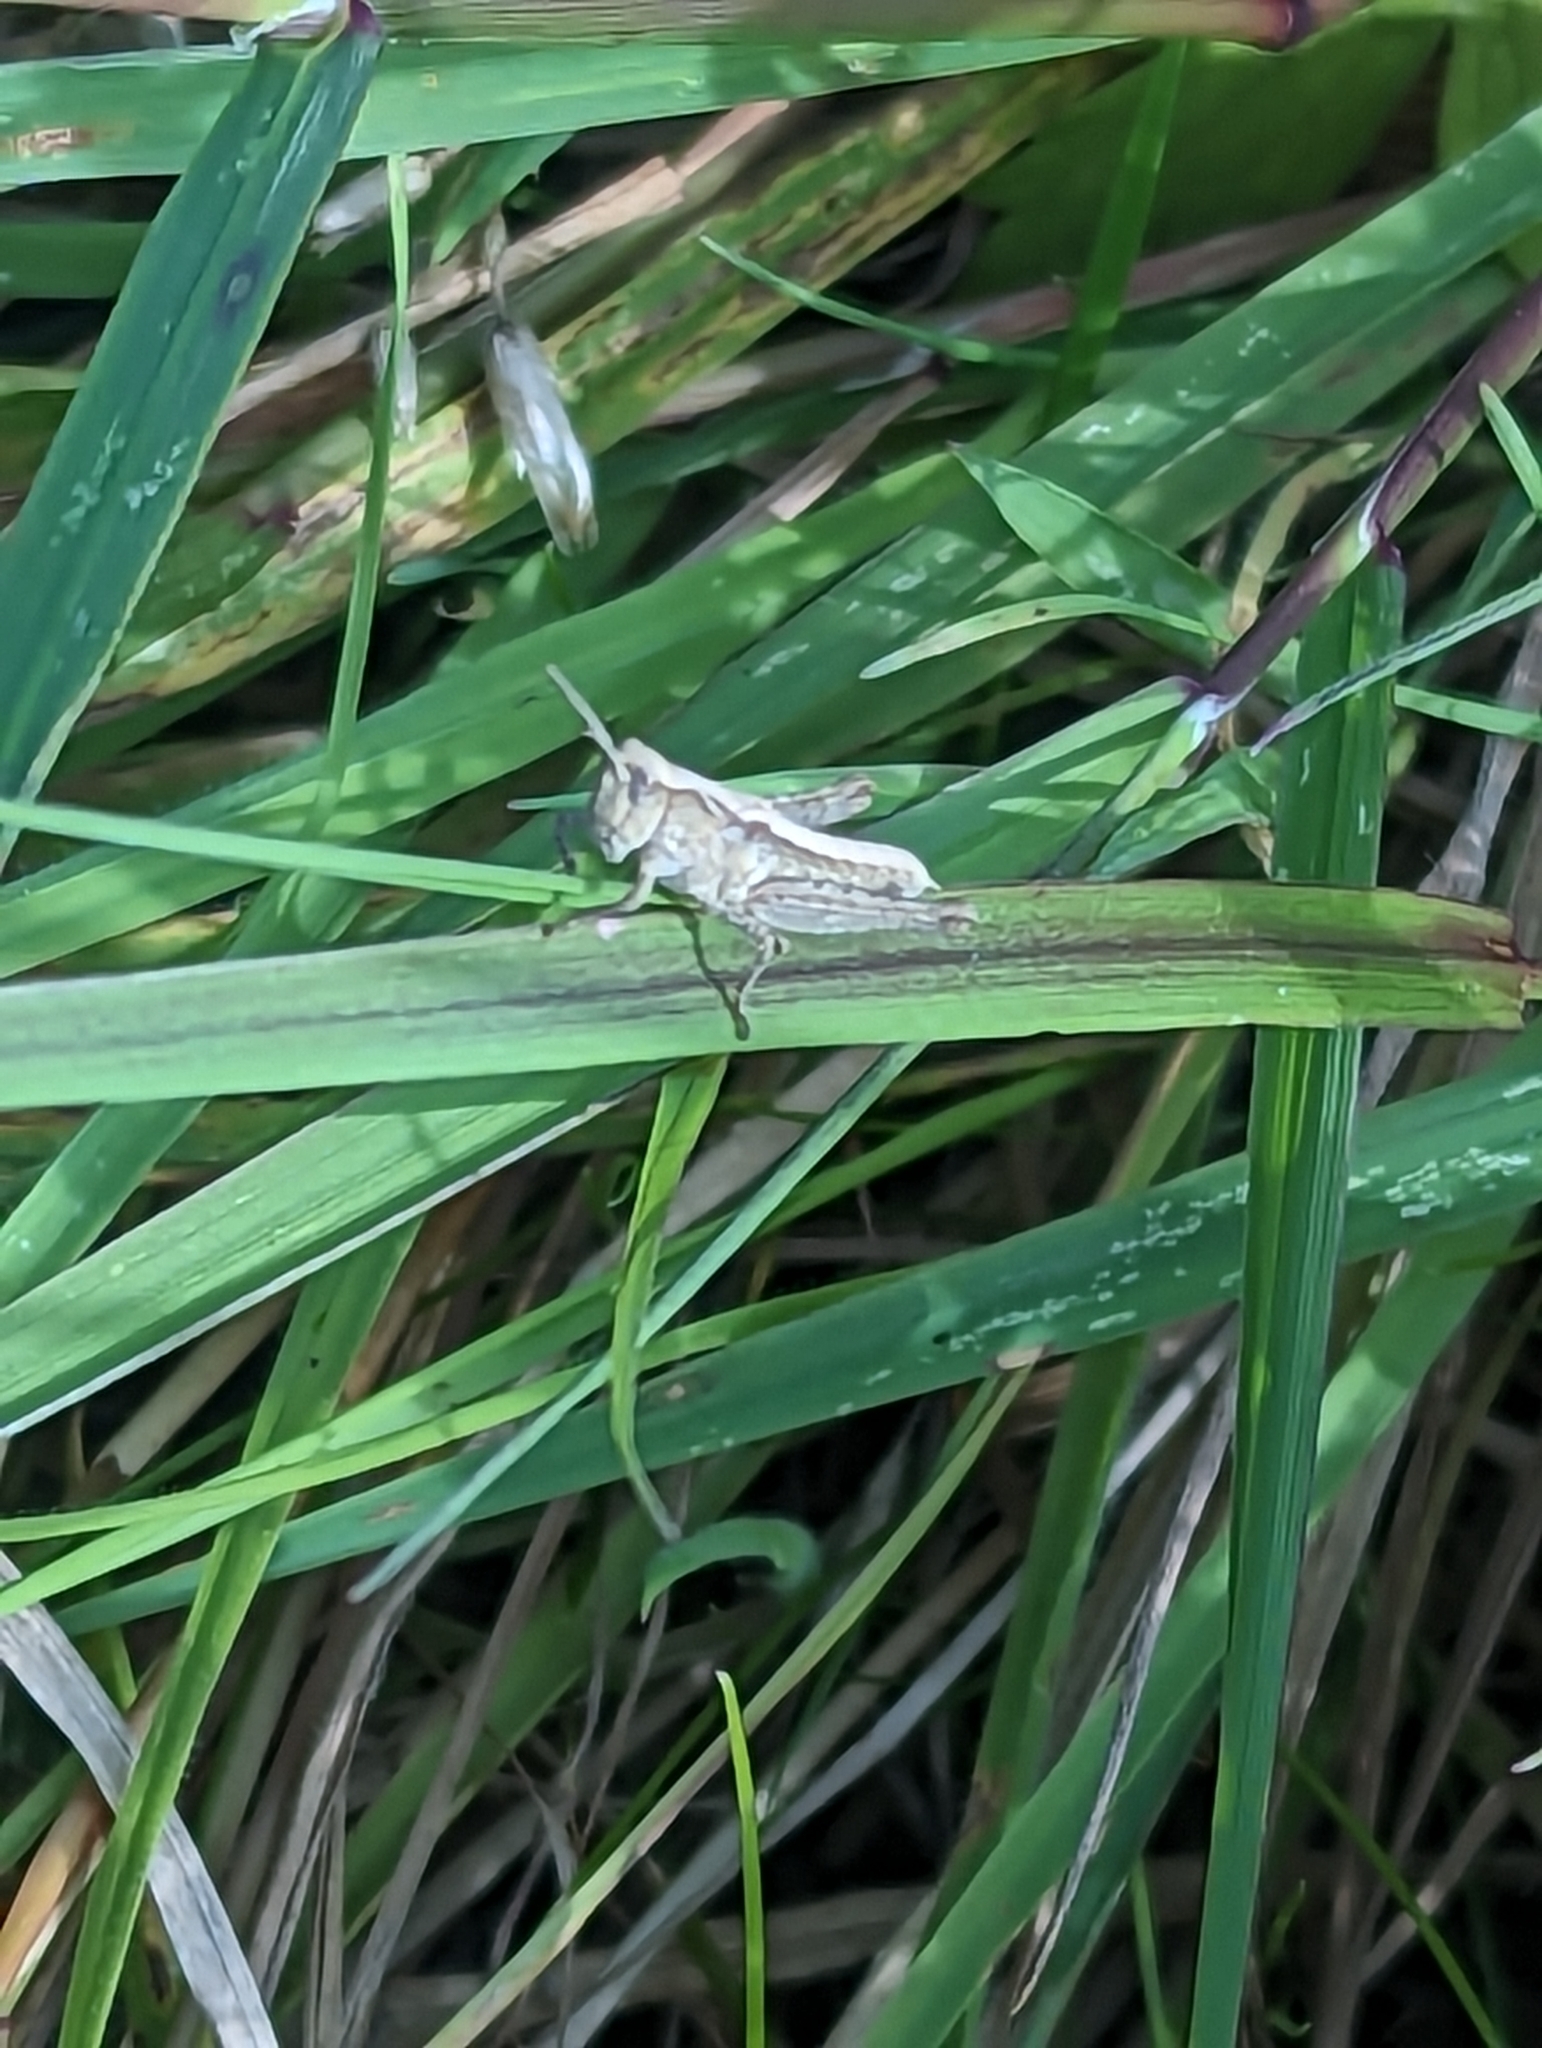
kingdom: Animalia
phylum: Arthropoda
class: Insecta
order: Orthoptera
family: Acrididae
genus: Chorthippus
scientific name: Chorthippus brunneus
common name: Field grasshopper
